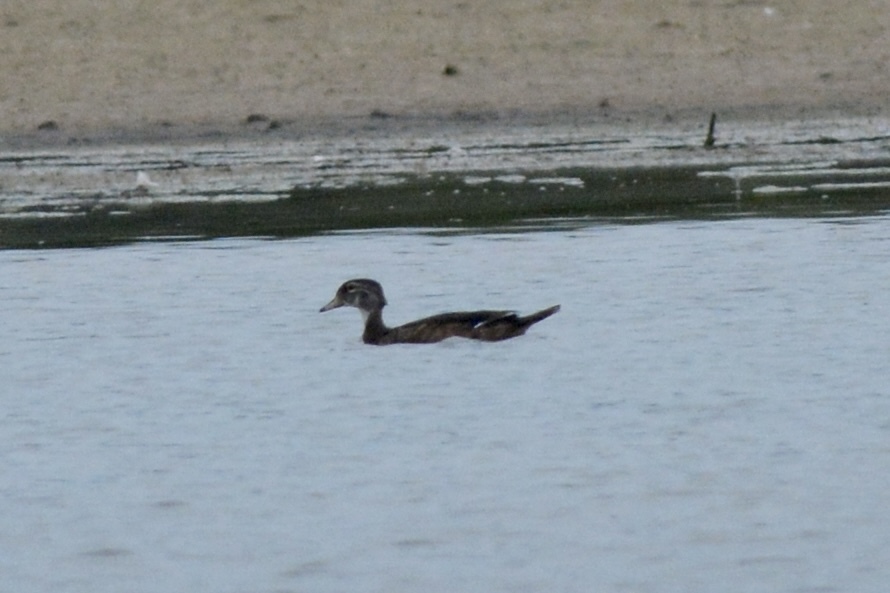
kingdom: Animalia
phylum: Chordata
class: Aves
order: Anseriformes
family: Anatidae
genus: Aix
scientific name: Aix sponsa
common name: Wood duck
